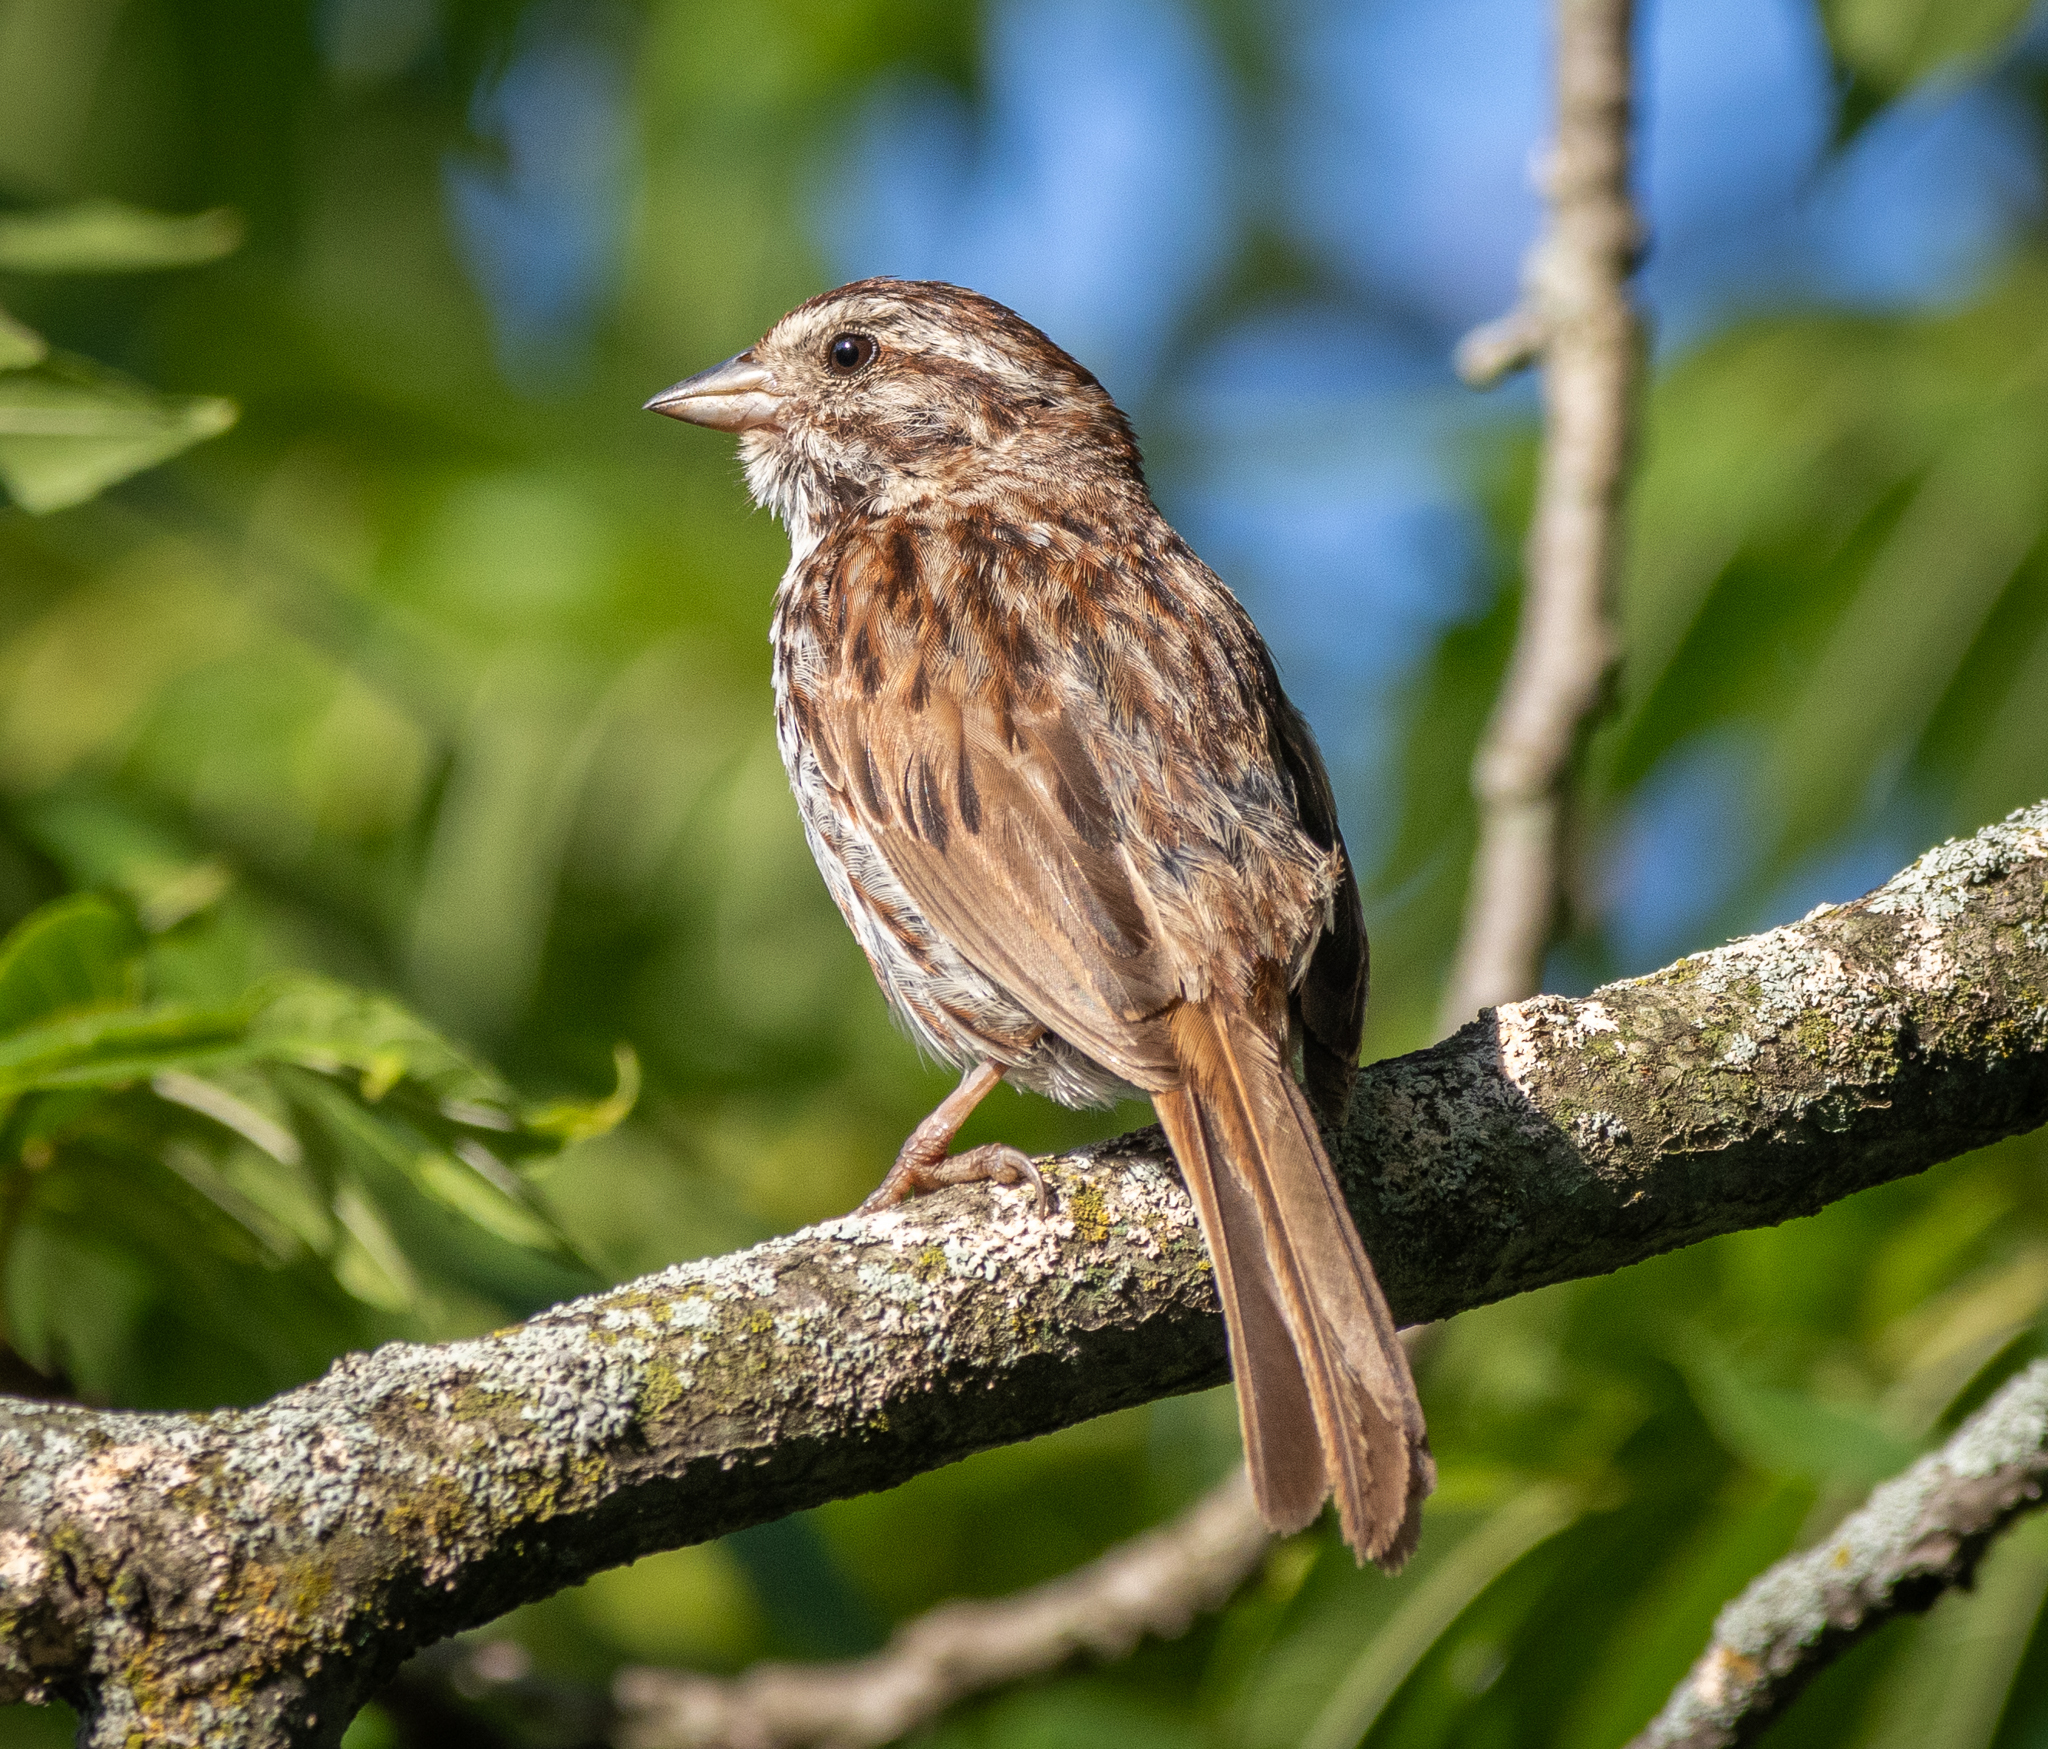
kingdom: Animalia
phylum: Chordata
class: Aves
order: Passeriformes
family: Passerellidae
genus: Melospiza
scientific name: Melospiza melodia
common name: Song sparrow
